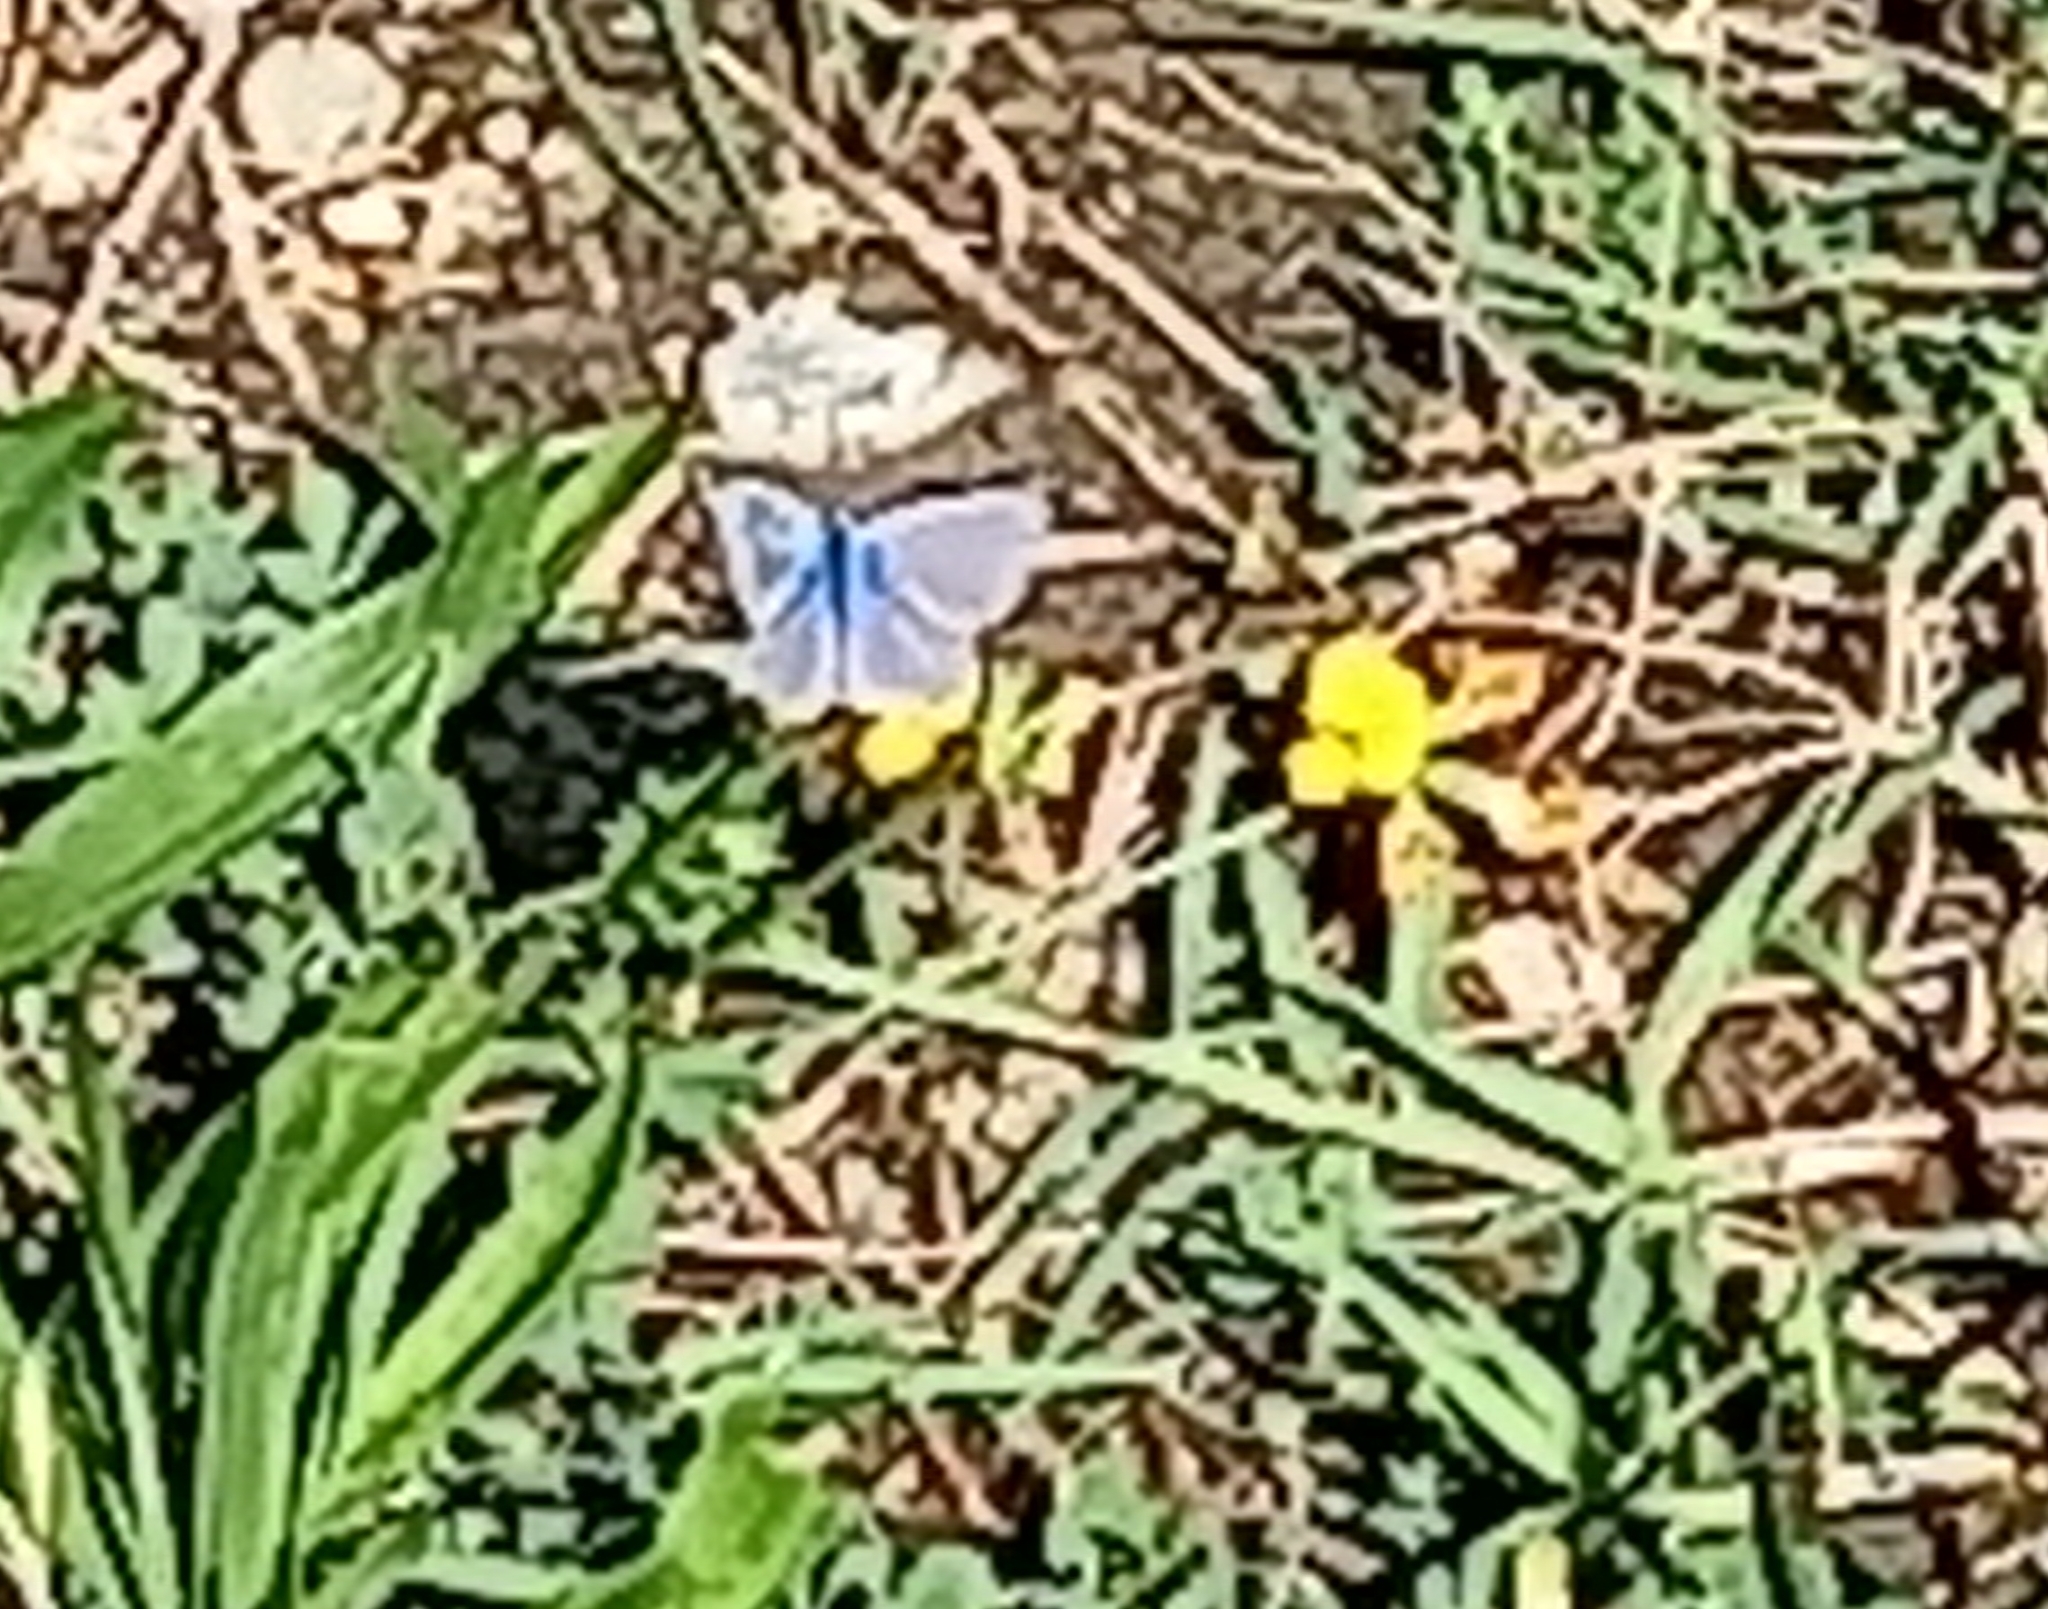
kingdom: Animalia
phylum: Arthropoda
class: Insecta
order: Lepidoptera
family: Lycaenidae
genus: Lysandra
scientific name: Lysandra bellargus
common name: Adonis blue
